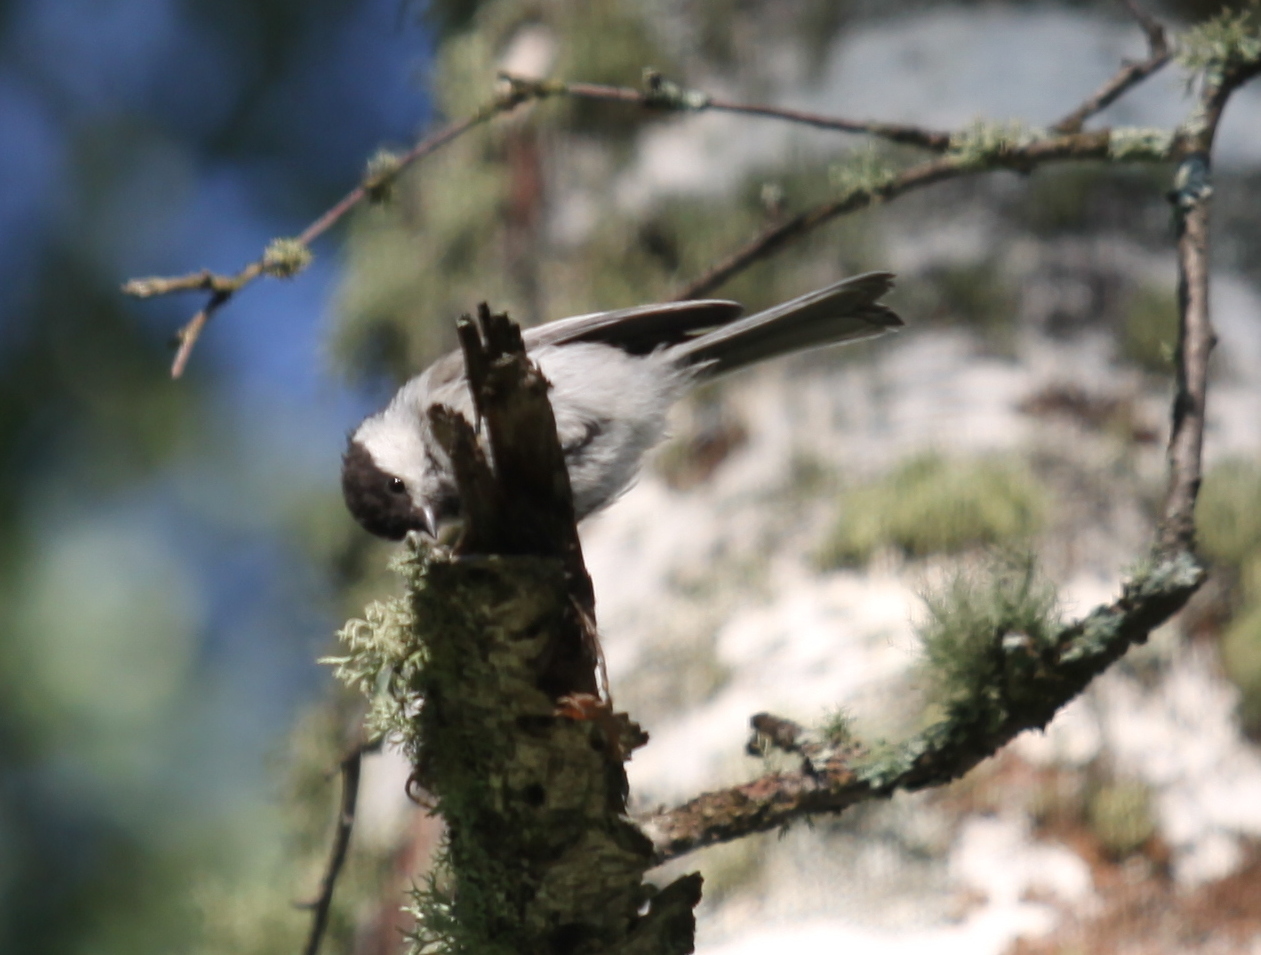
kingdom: Animalia
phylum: Chordata
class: Aves
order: Passeriformes
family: Paridae
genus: Poecile
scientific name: Poecile montanus
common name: Willow tit
